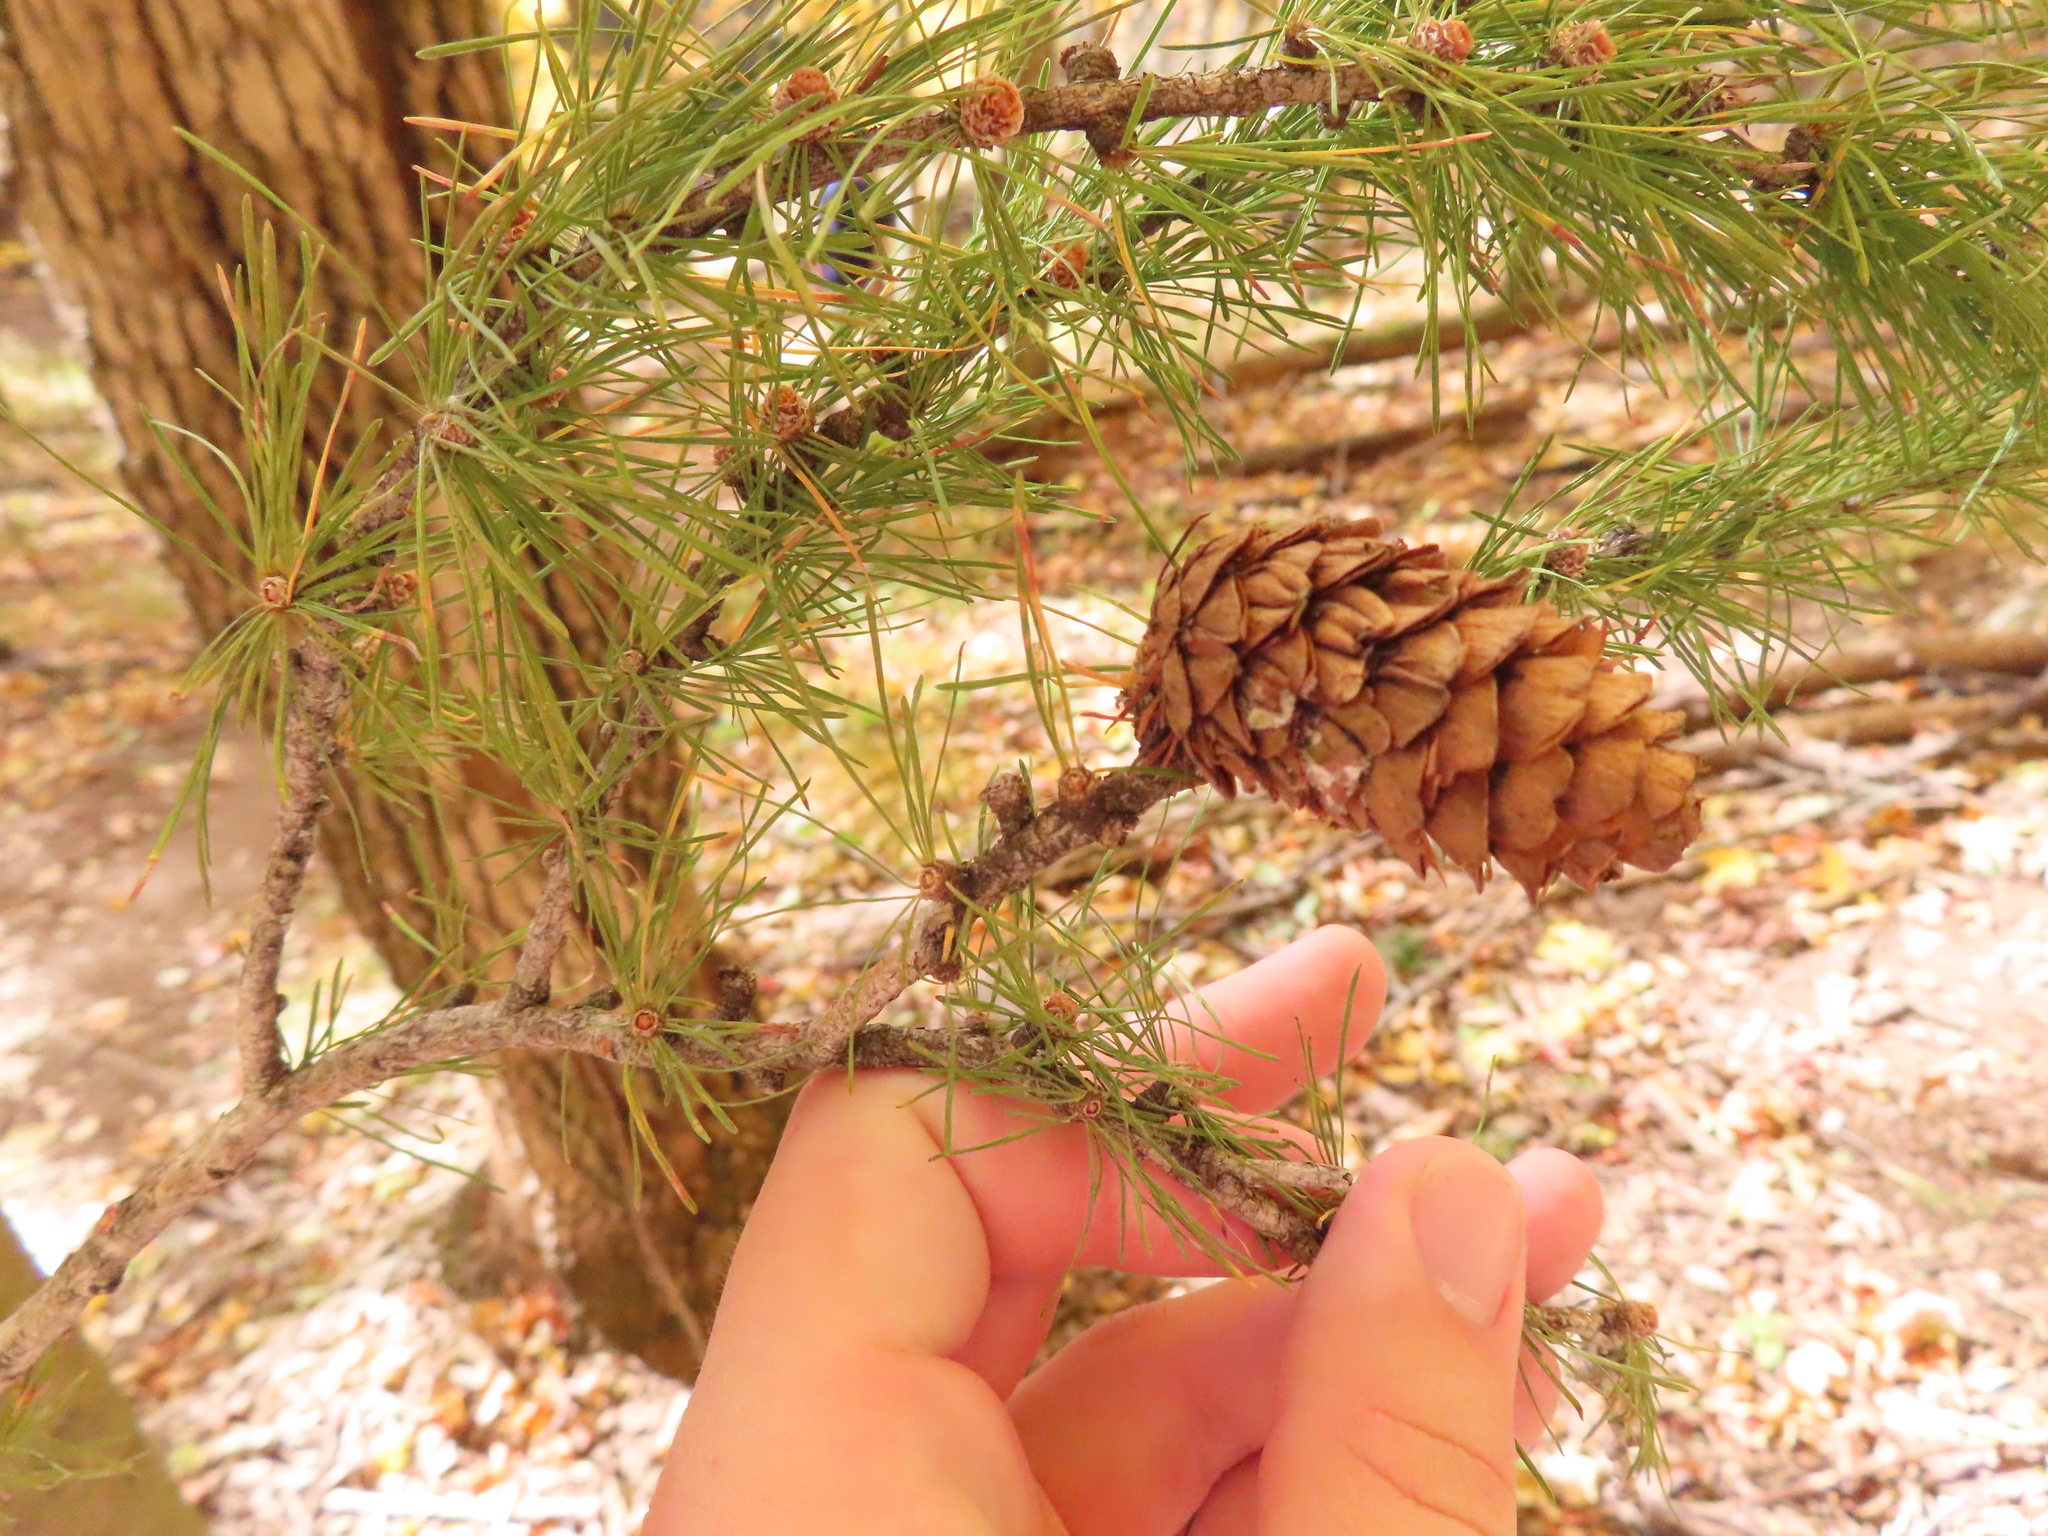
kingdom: Plantae
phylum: Tracheophyta
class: Pinopsida
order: Pinales
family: Pinaceae
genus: Larix
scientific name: Larix decidua
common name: European larch
